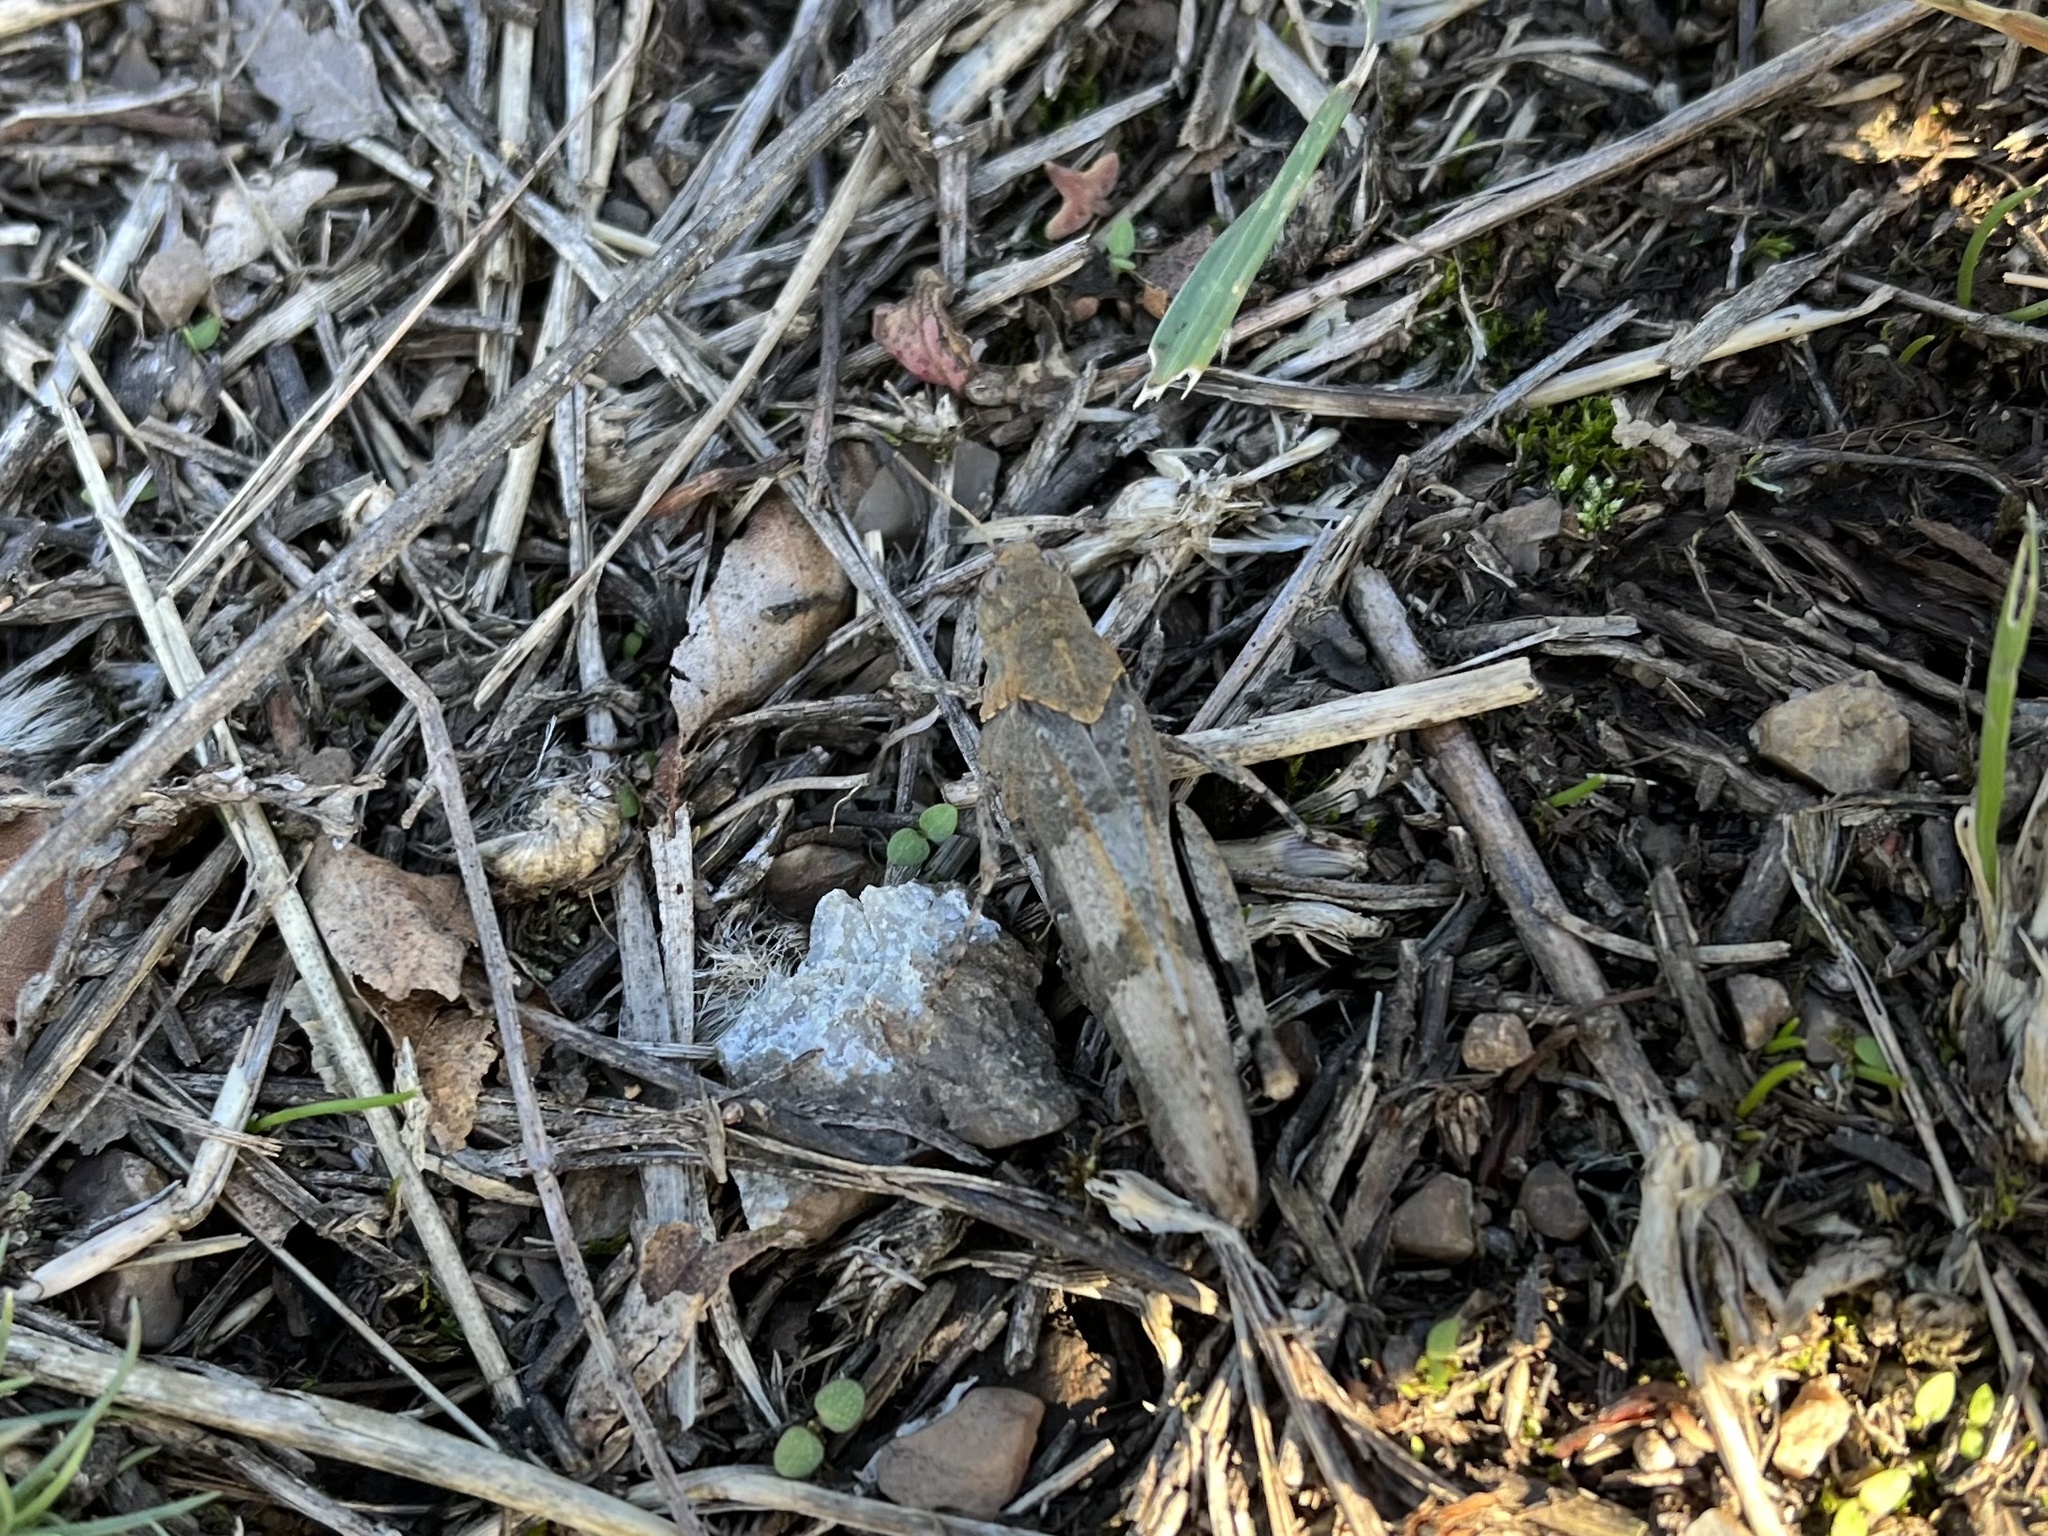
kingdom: Animalia
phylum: Arthropoda
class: Insecta
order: Orthoptera
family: Acrididae
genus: Oedipoda
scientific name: Oedipoda caerulescens
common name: Blue-winged grasshopper
